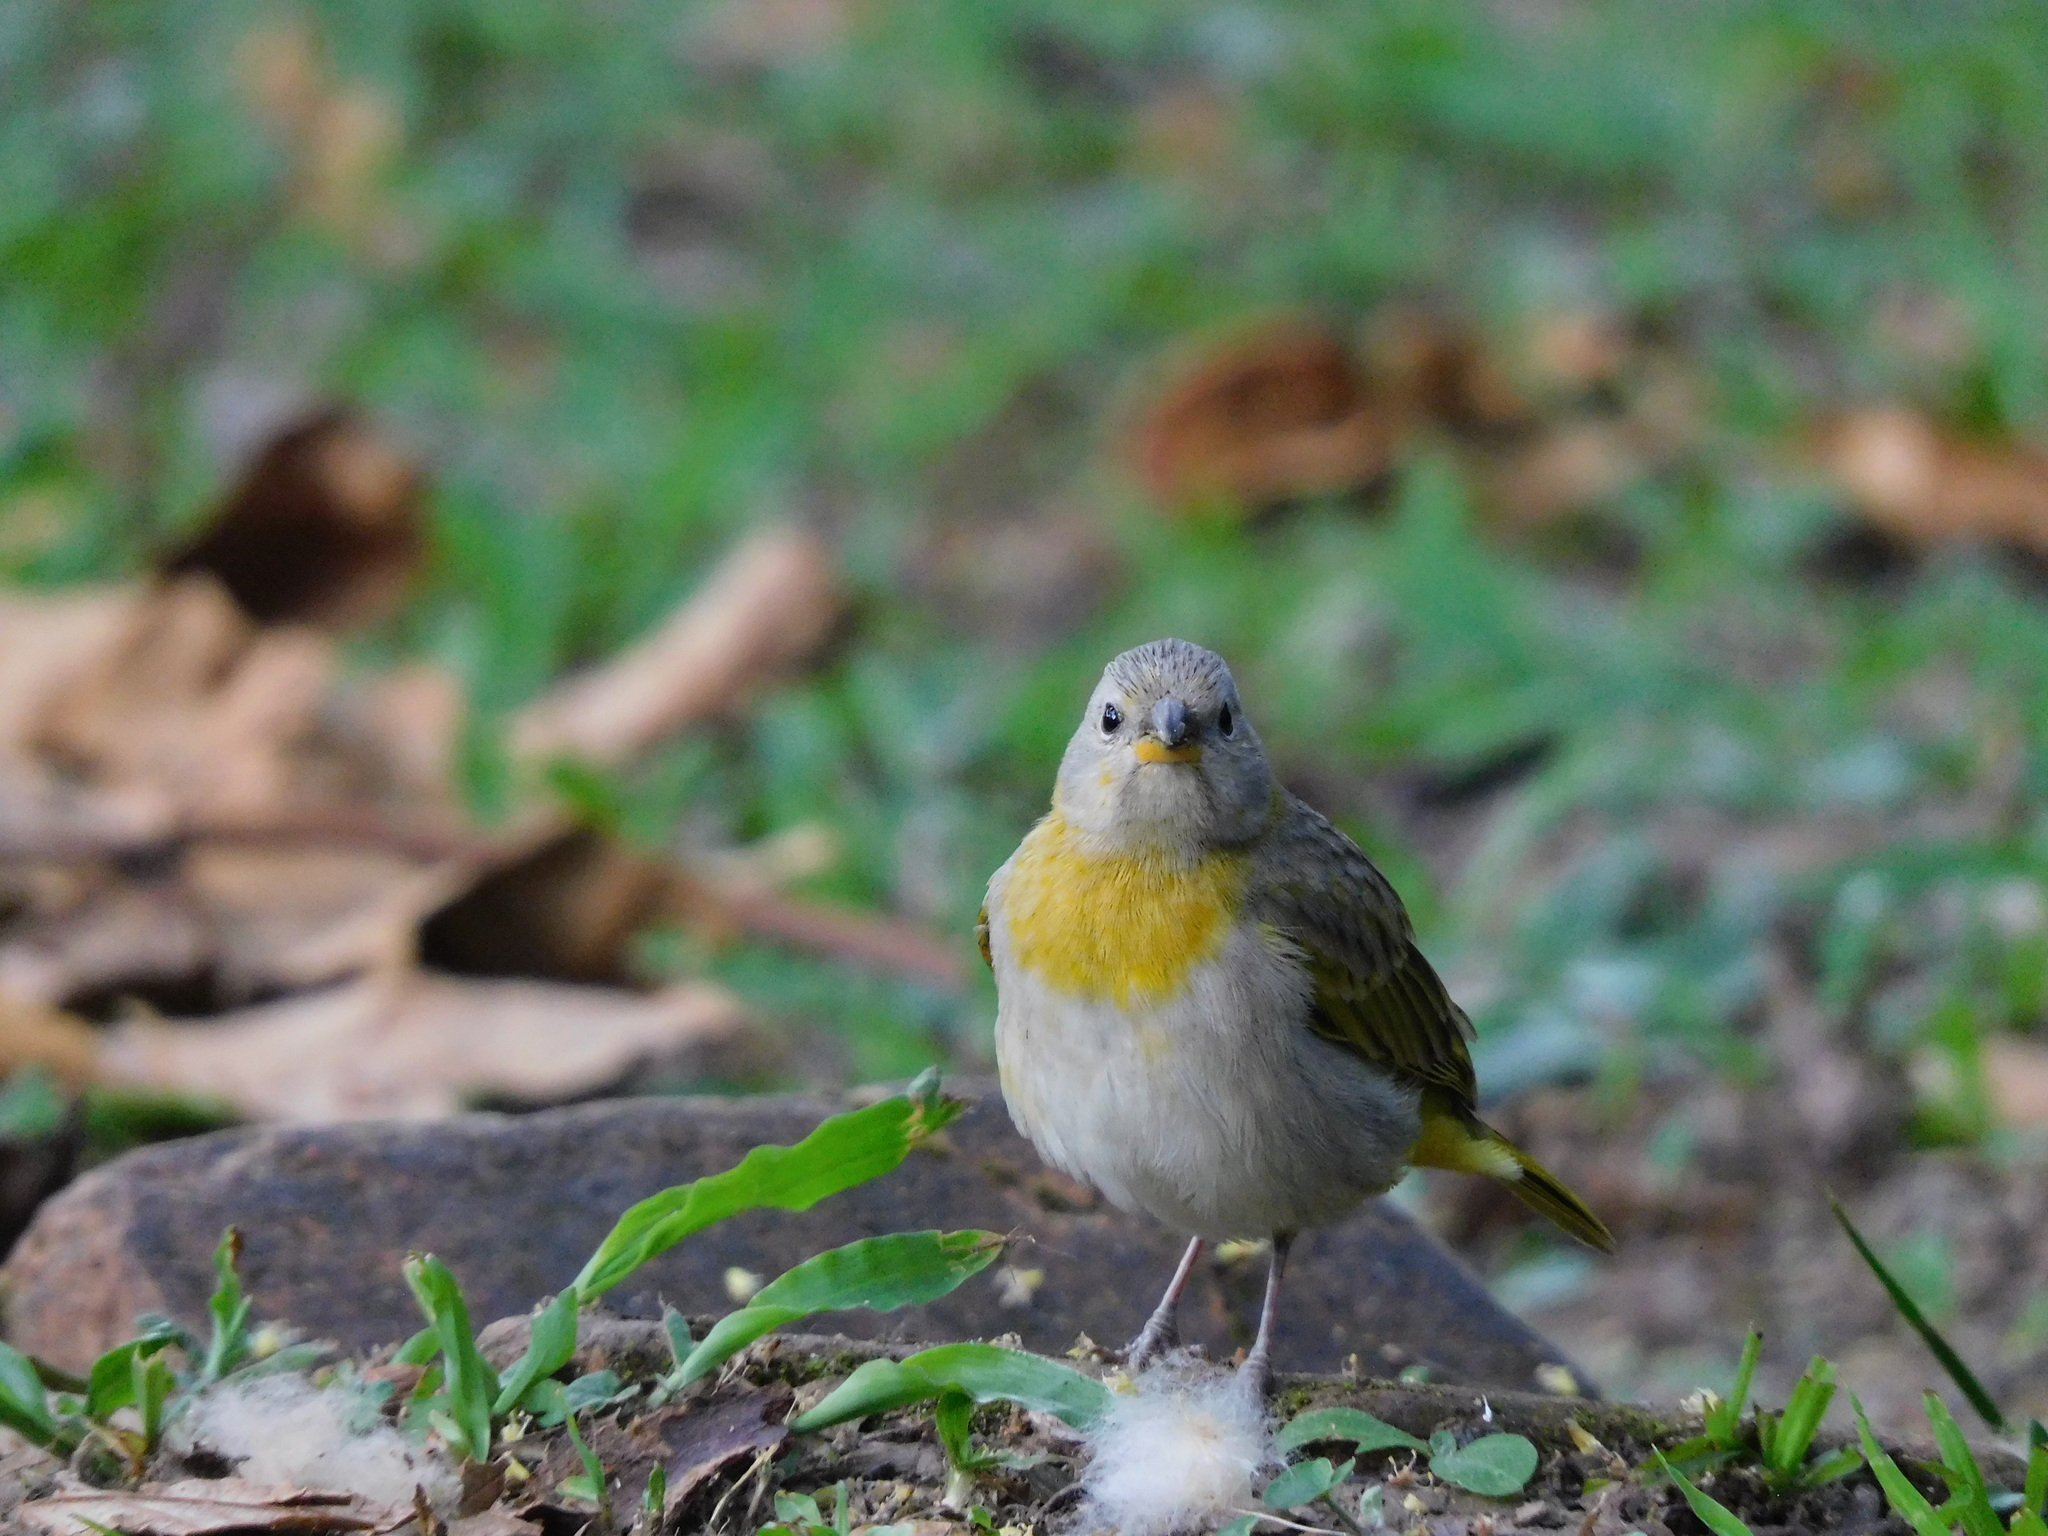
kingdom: Animalia
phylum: Chordata
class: Aves
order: Passeriformes
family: Thraupidae
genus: Sicalis
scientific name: Sicalis flaveola
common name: Saffron finch
